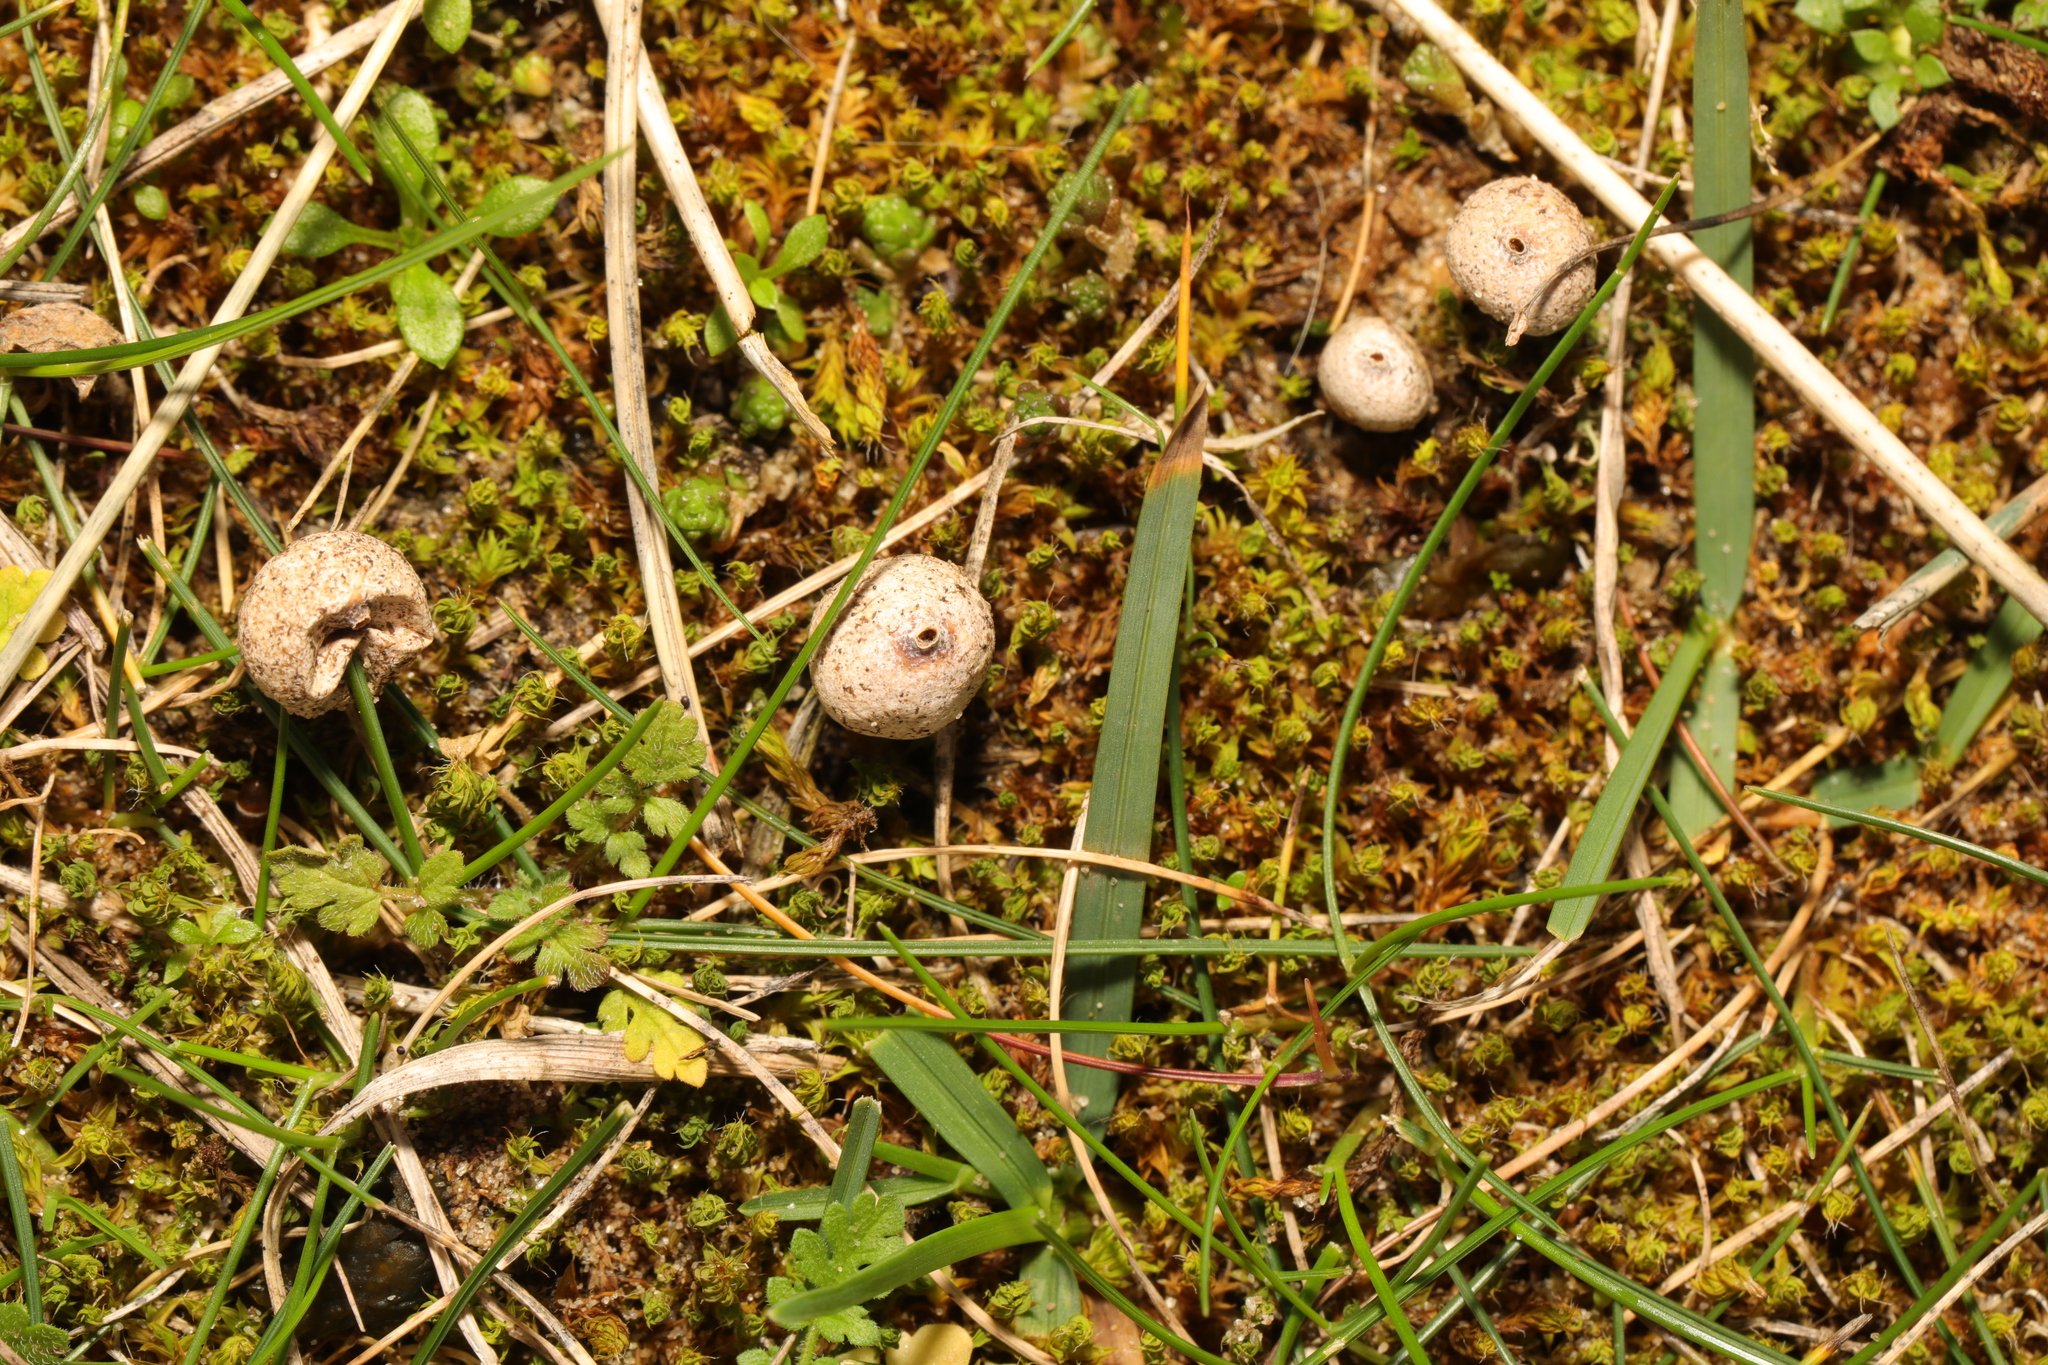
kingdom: Fungi
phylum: Basidiomycota
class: Agaricomycetes
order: Agaricales
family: Agaricaceae
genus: Tulostoma
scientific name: Tulostoma brumale
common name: Winter stalk puffball
